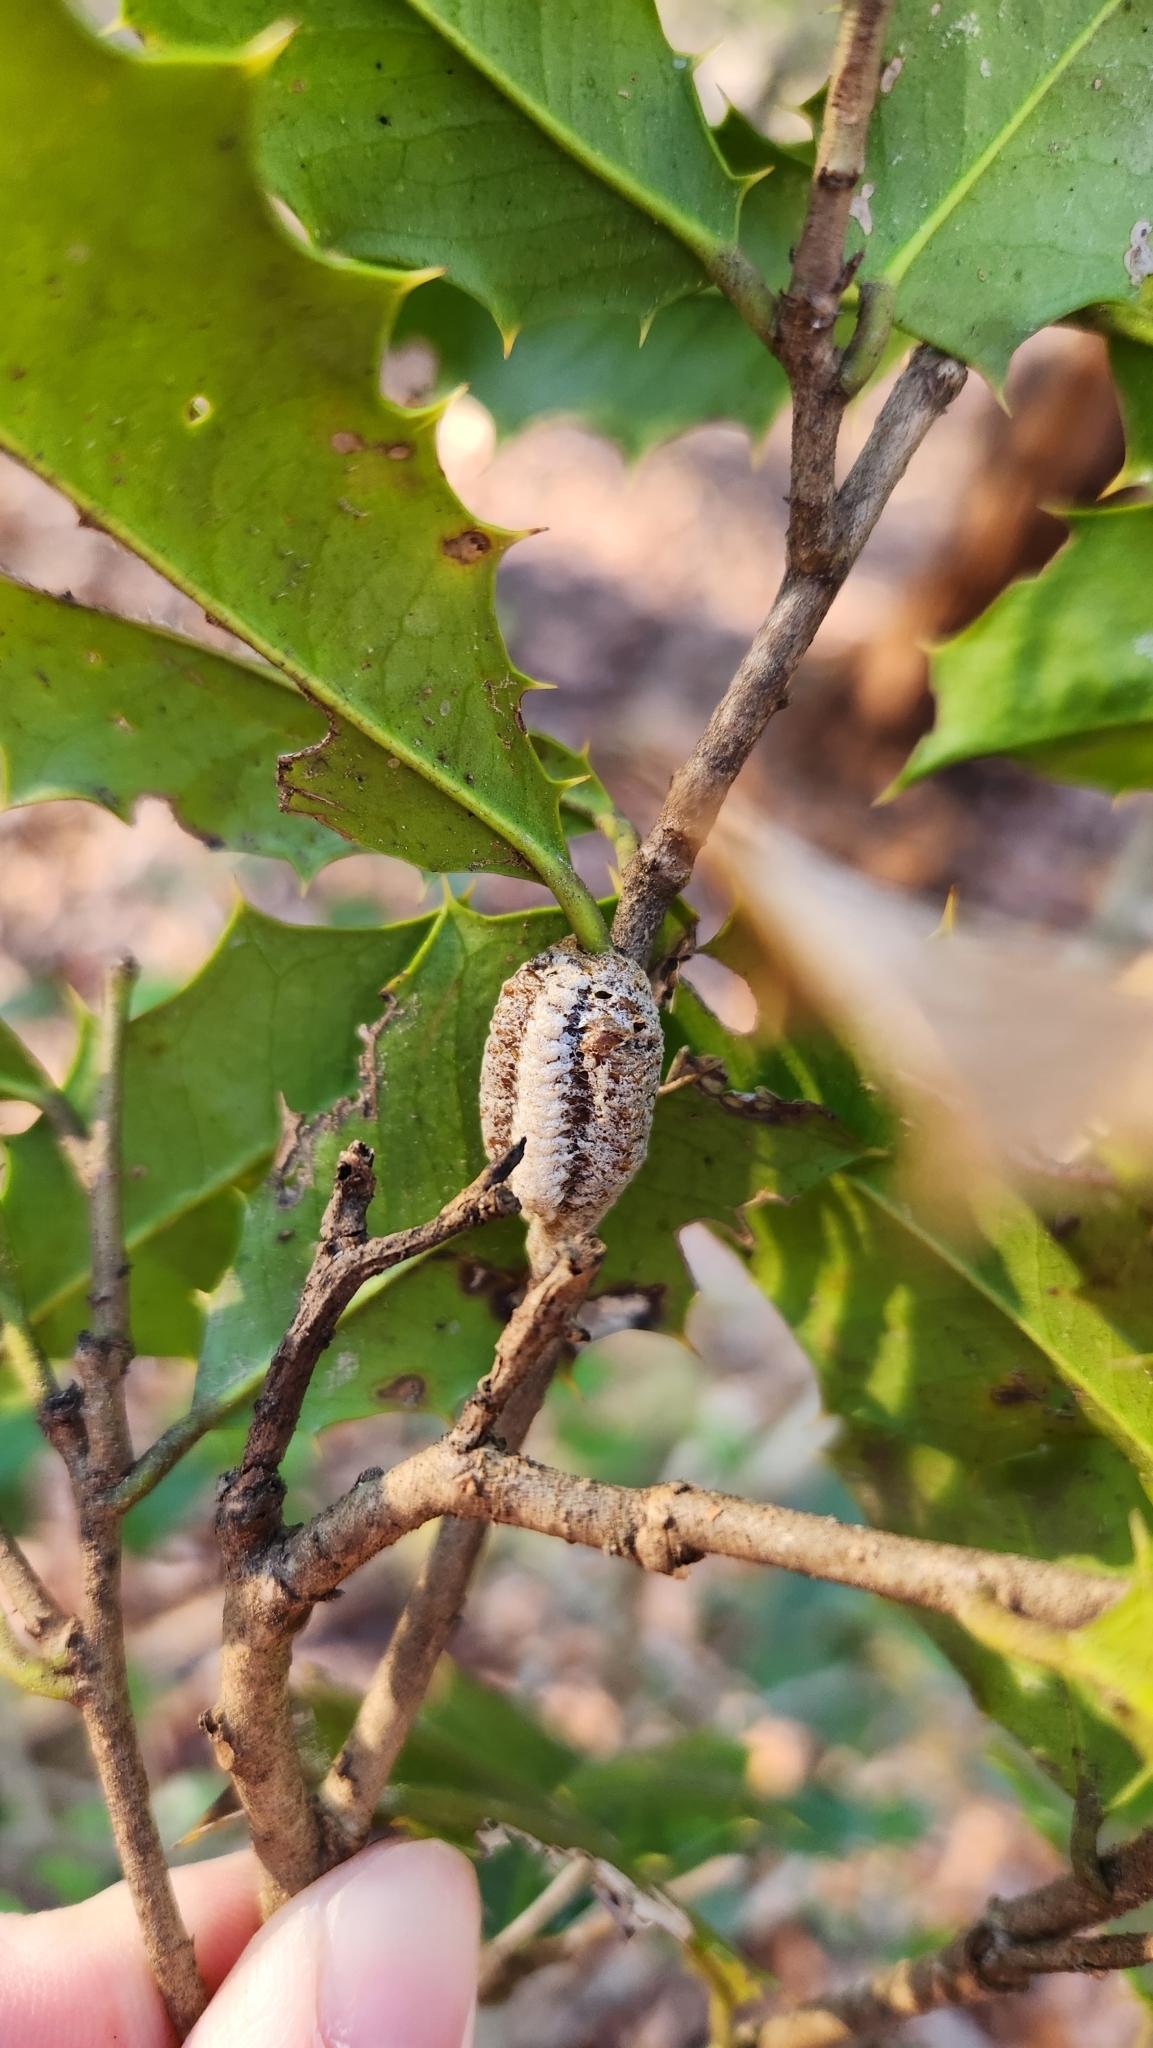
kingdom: Animalia
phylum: Arthropoda
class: Insecta
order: Mantodea
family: Mantidae
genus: Stagmomantis
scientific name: Stagmomantis carolina
